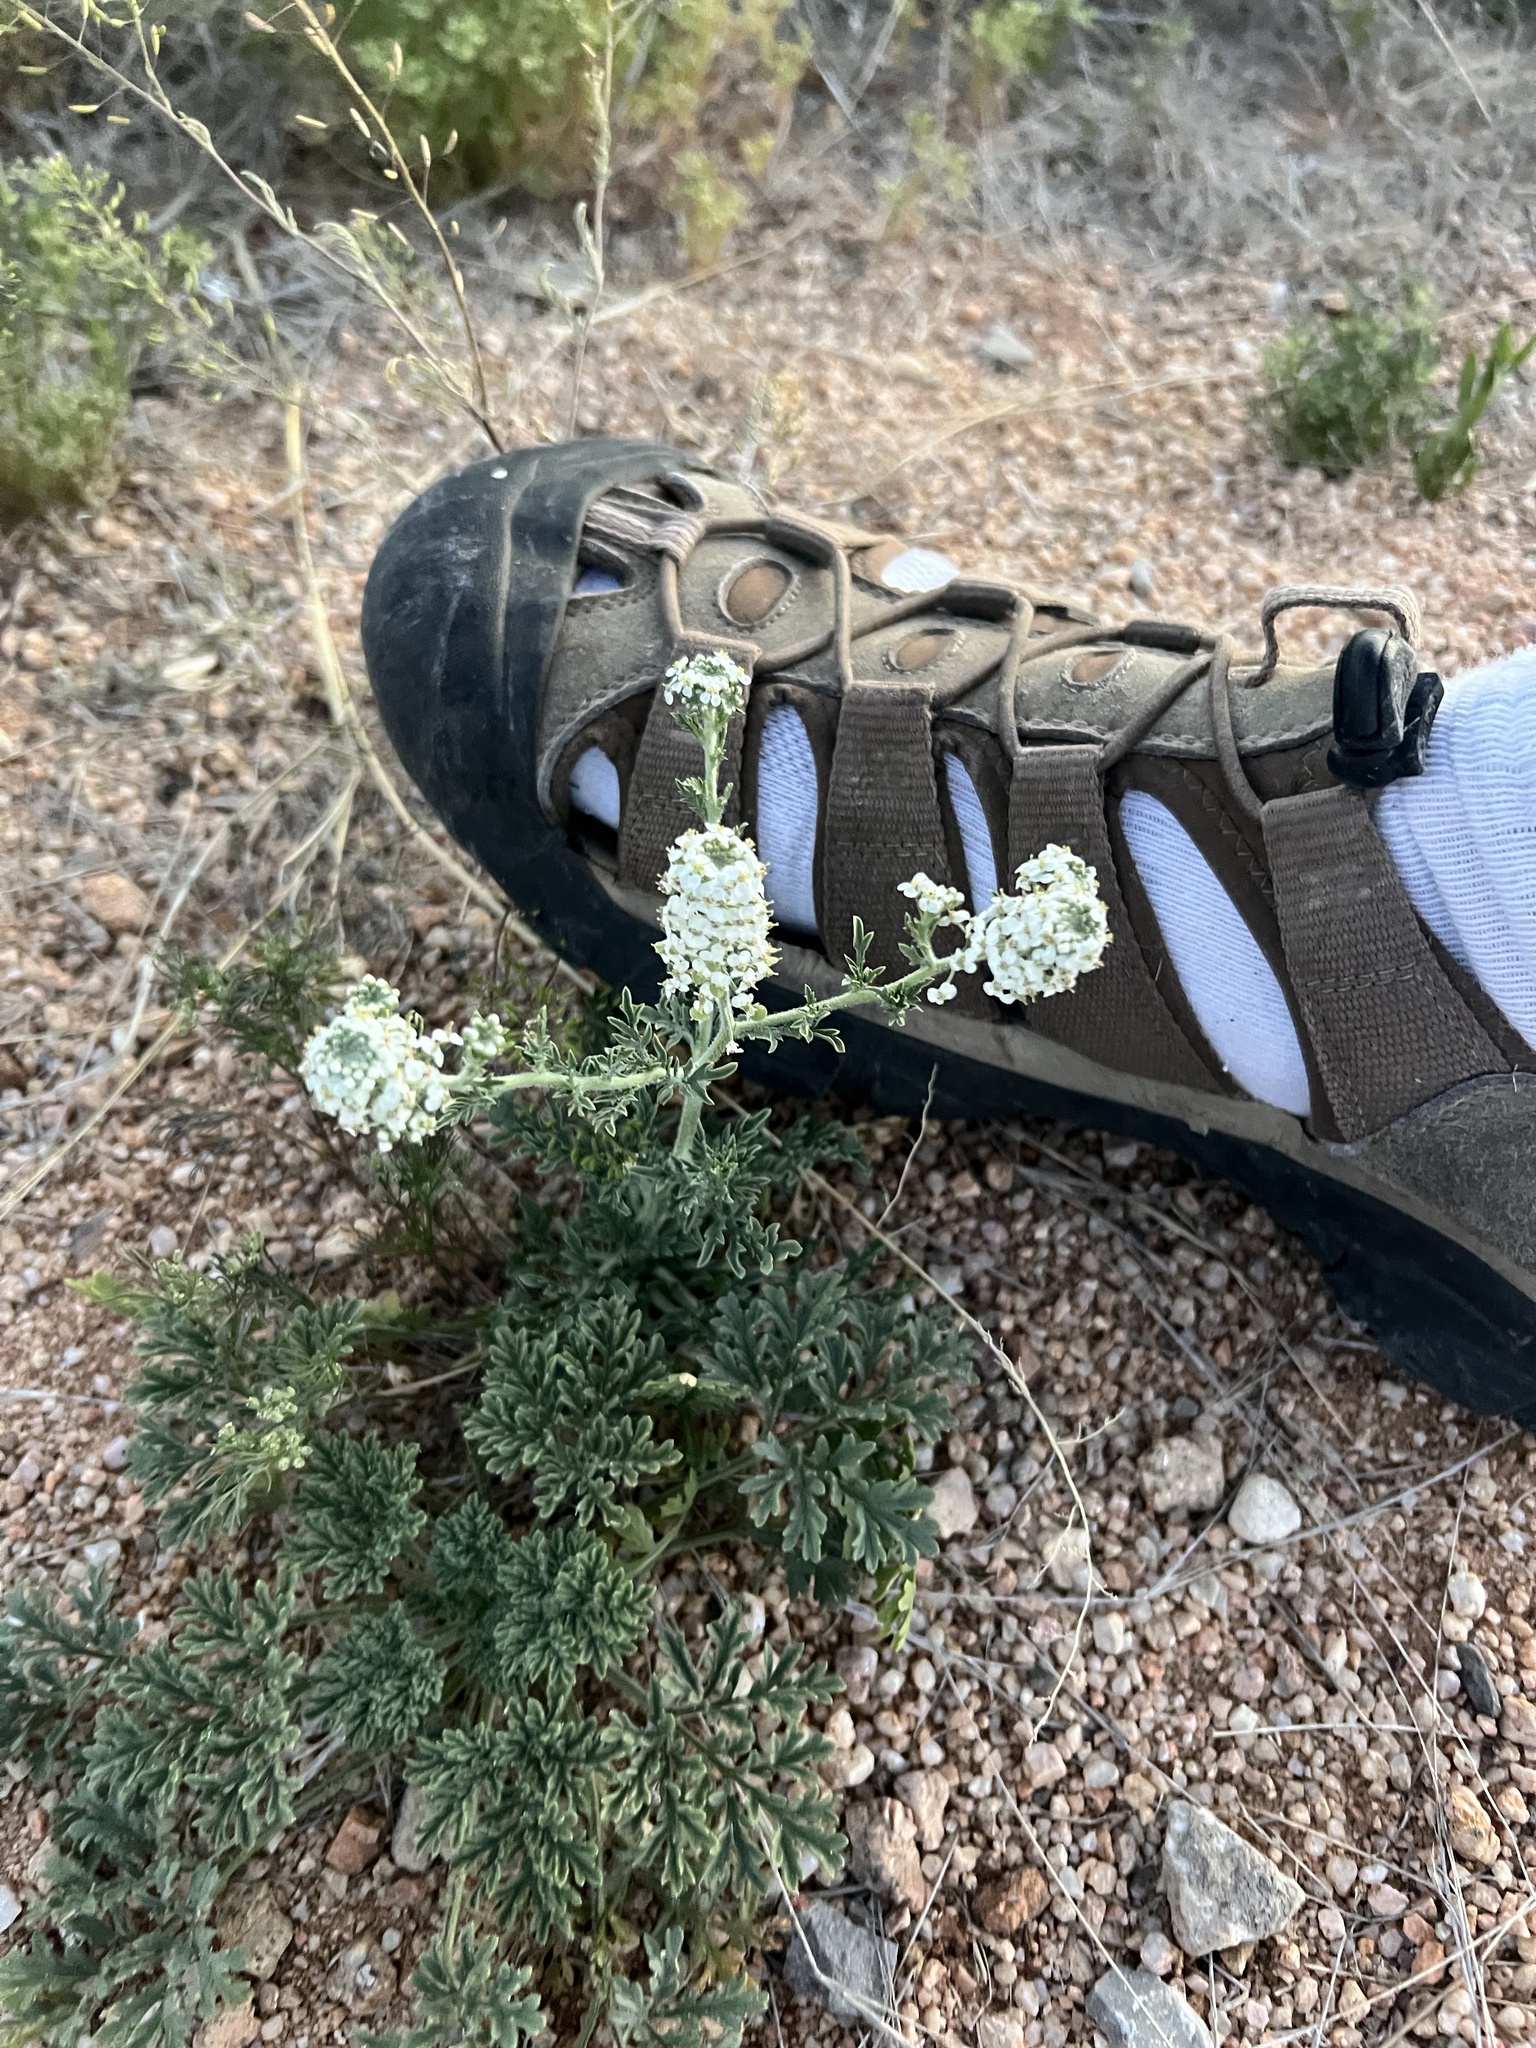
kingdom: Plantae
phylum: Tracheophyta
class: Magnoliopsida
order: Brassicales
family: Brassicaceae
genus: Lepidium
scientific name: Lepidium thurberi
